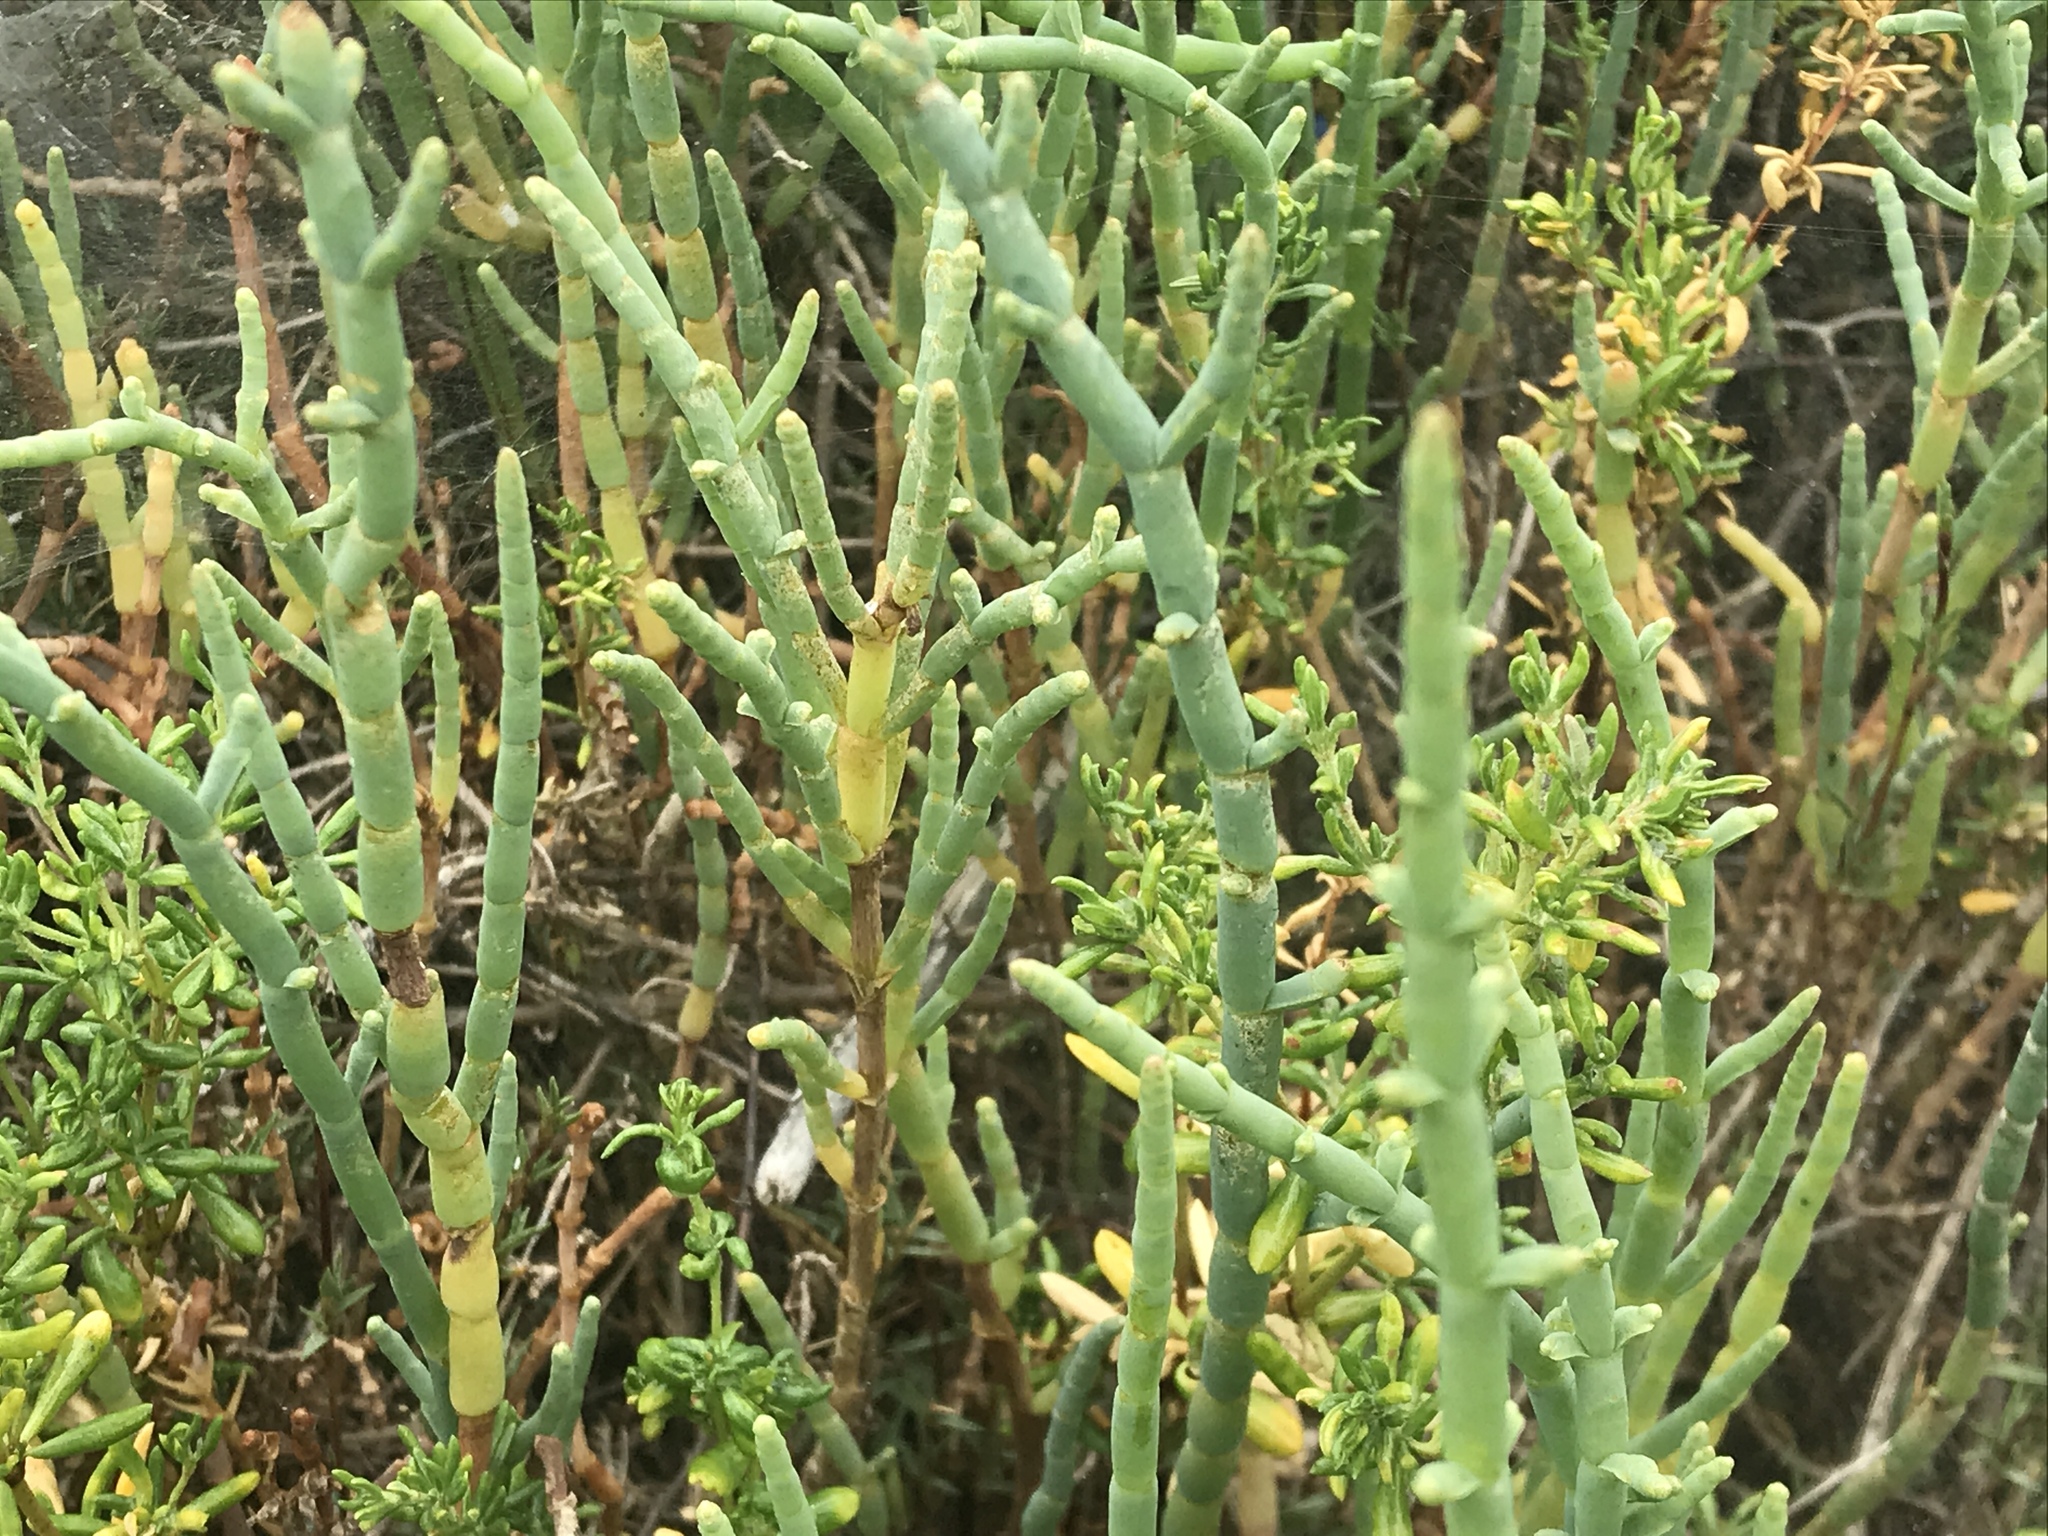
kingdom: Plantae
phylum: Tracheophyta
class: Magnoliopsida
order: Caryophyllales
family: Amaranthaceae
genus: Salicornia
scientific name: Salicornia pacifica
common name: Pacific glasswort
